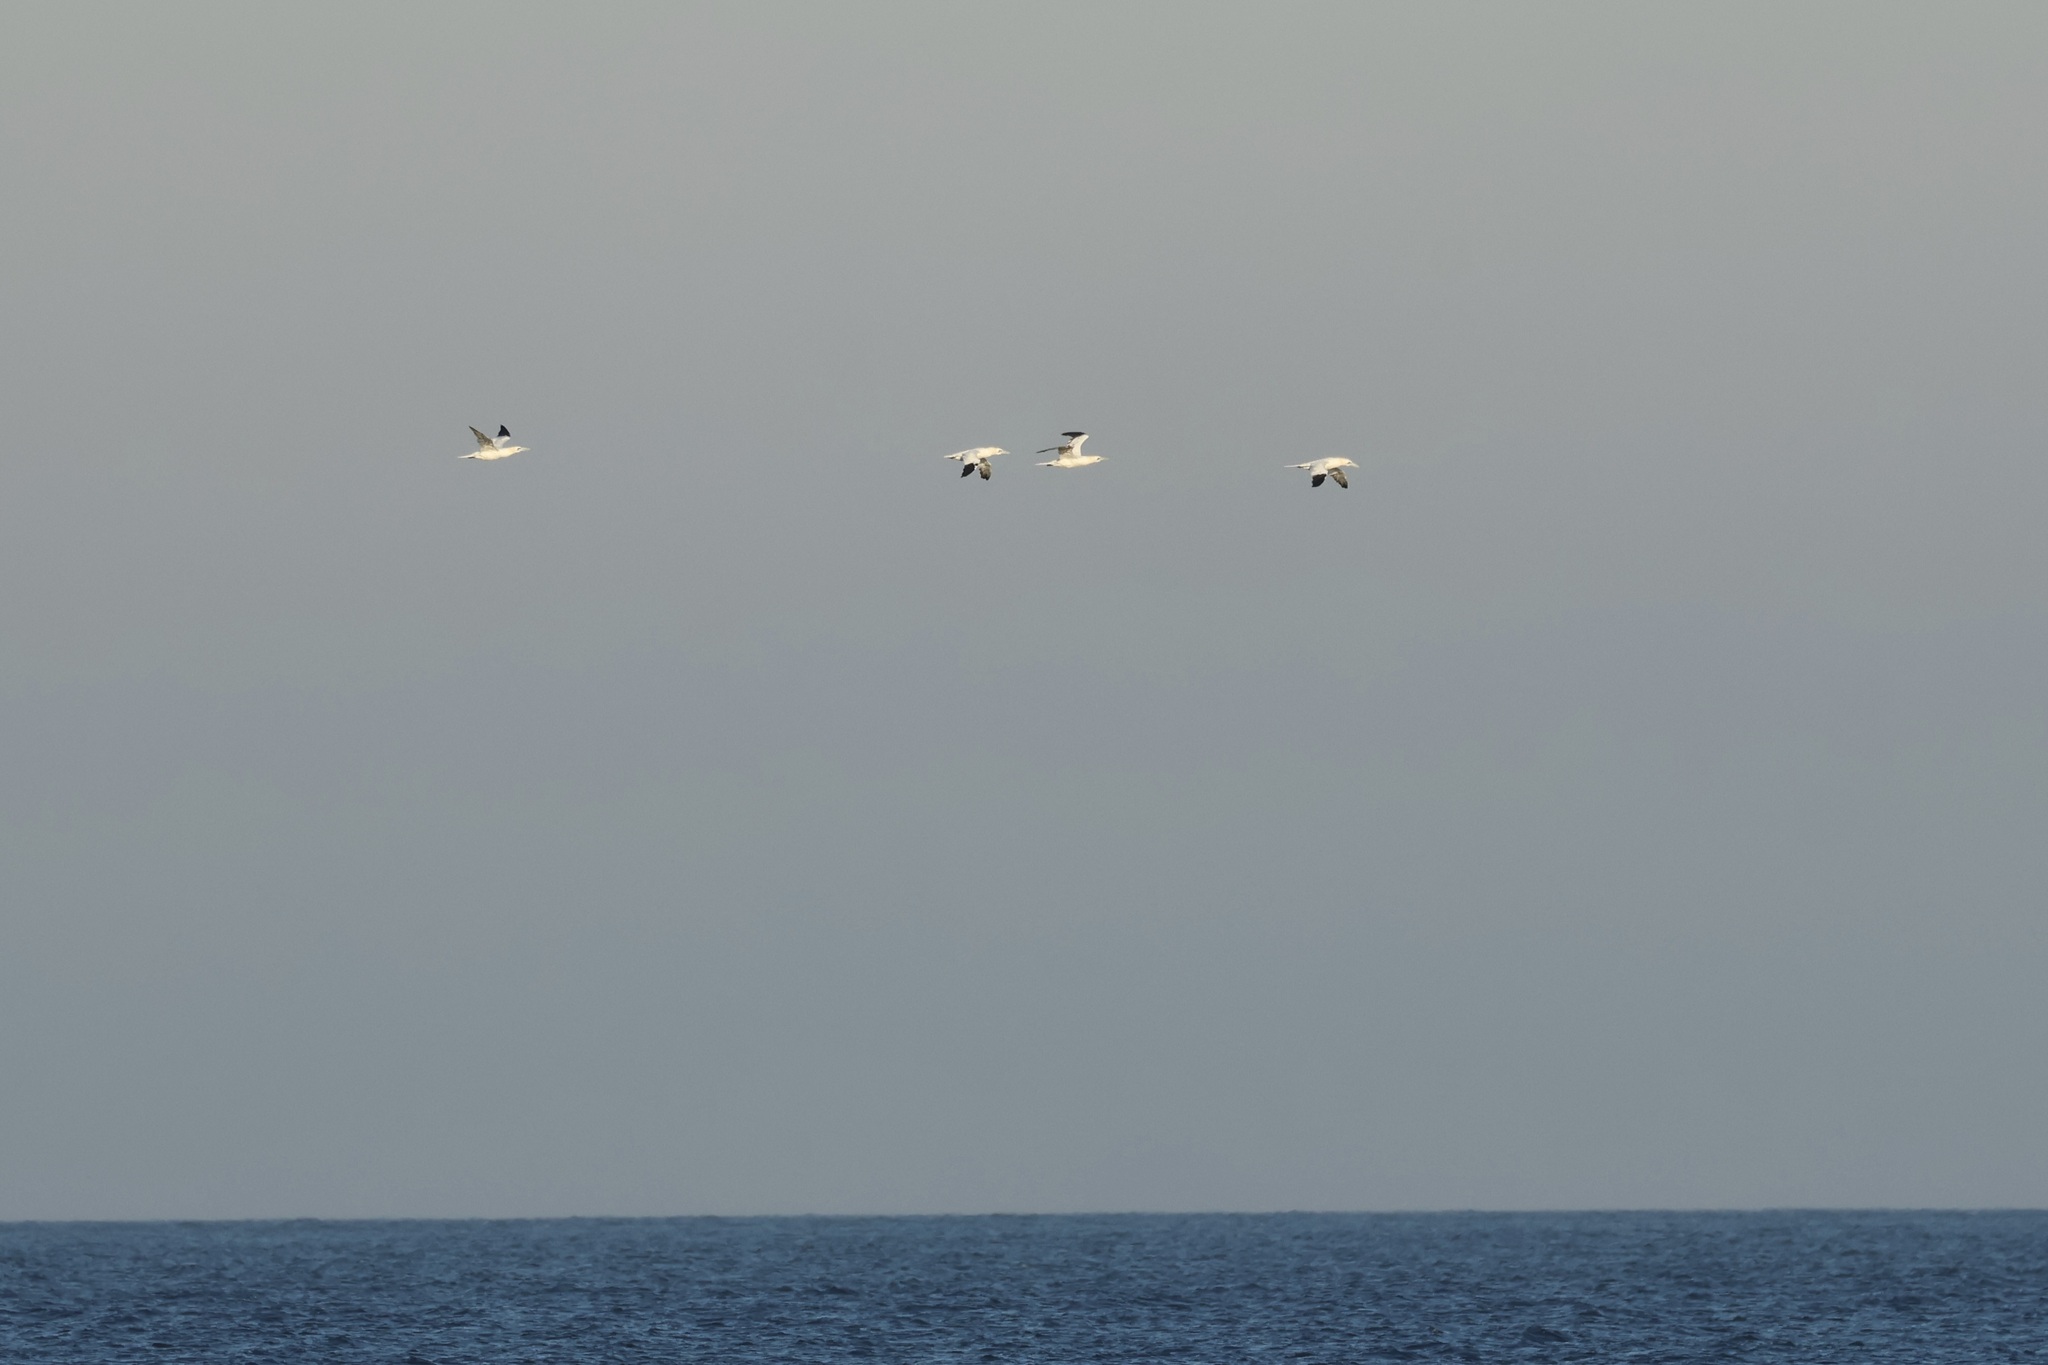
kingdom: Animalia
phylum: Chordata
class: Aves
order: Suliformes
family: Sulidae
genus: Morus
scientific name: Morus bassanus
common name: Northern gannet
